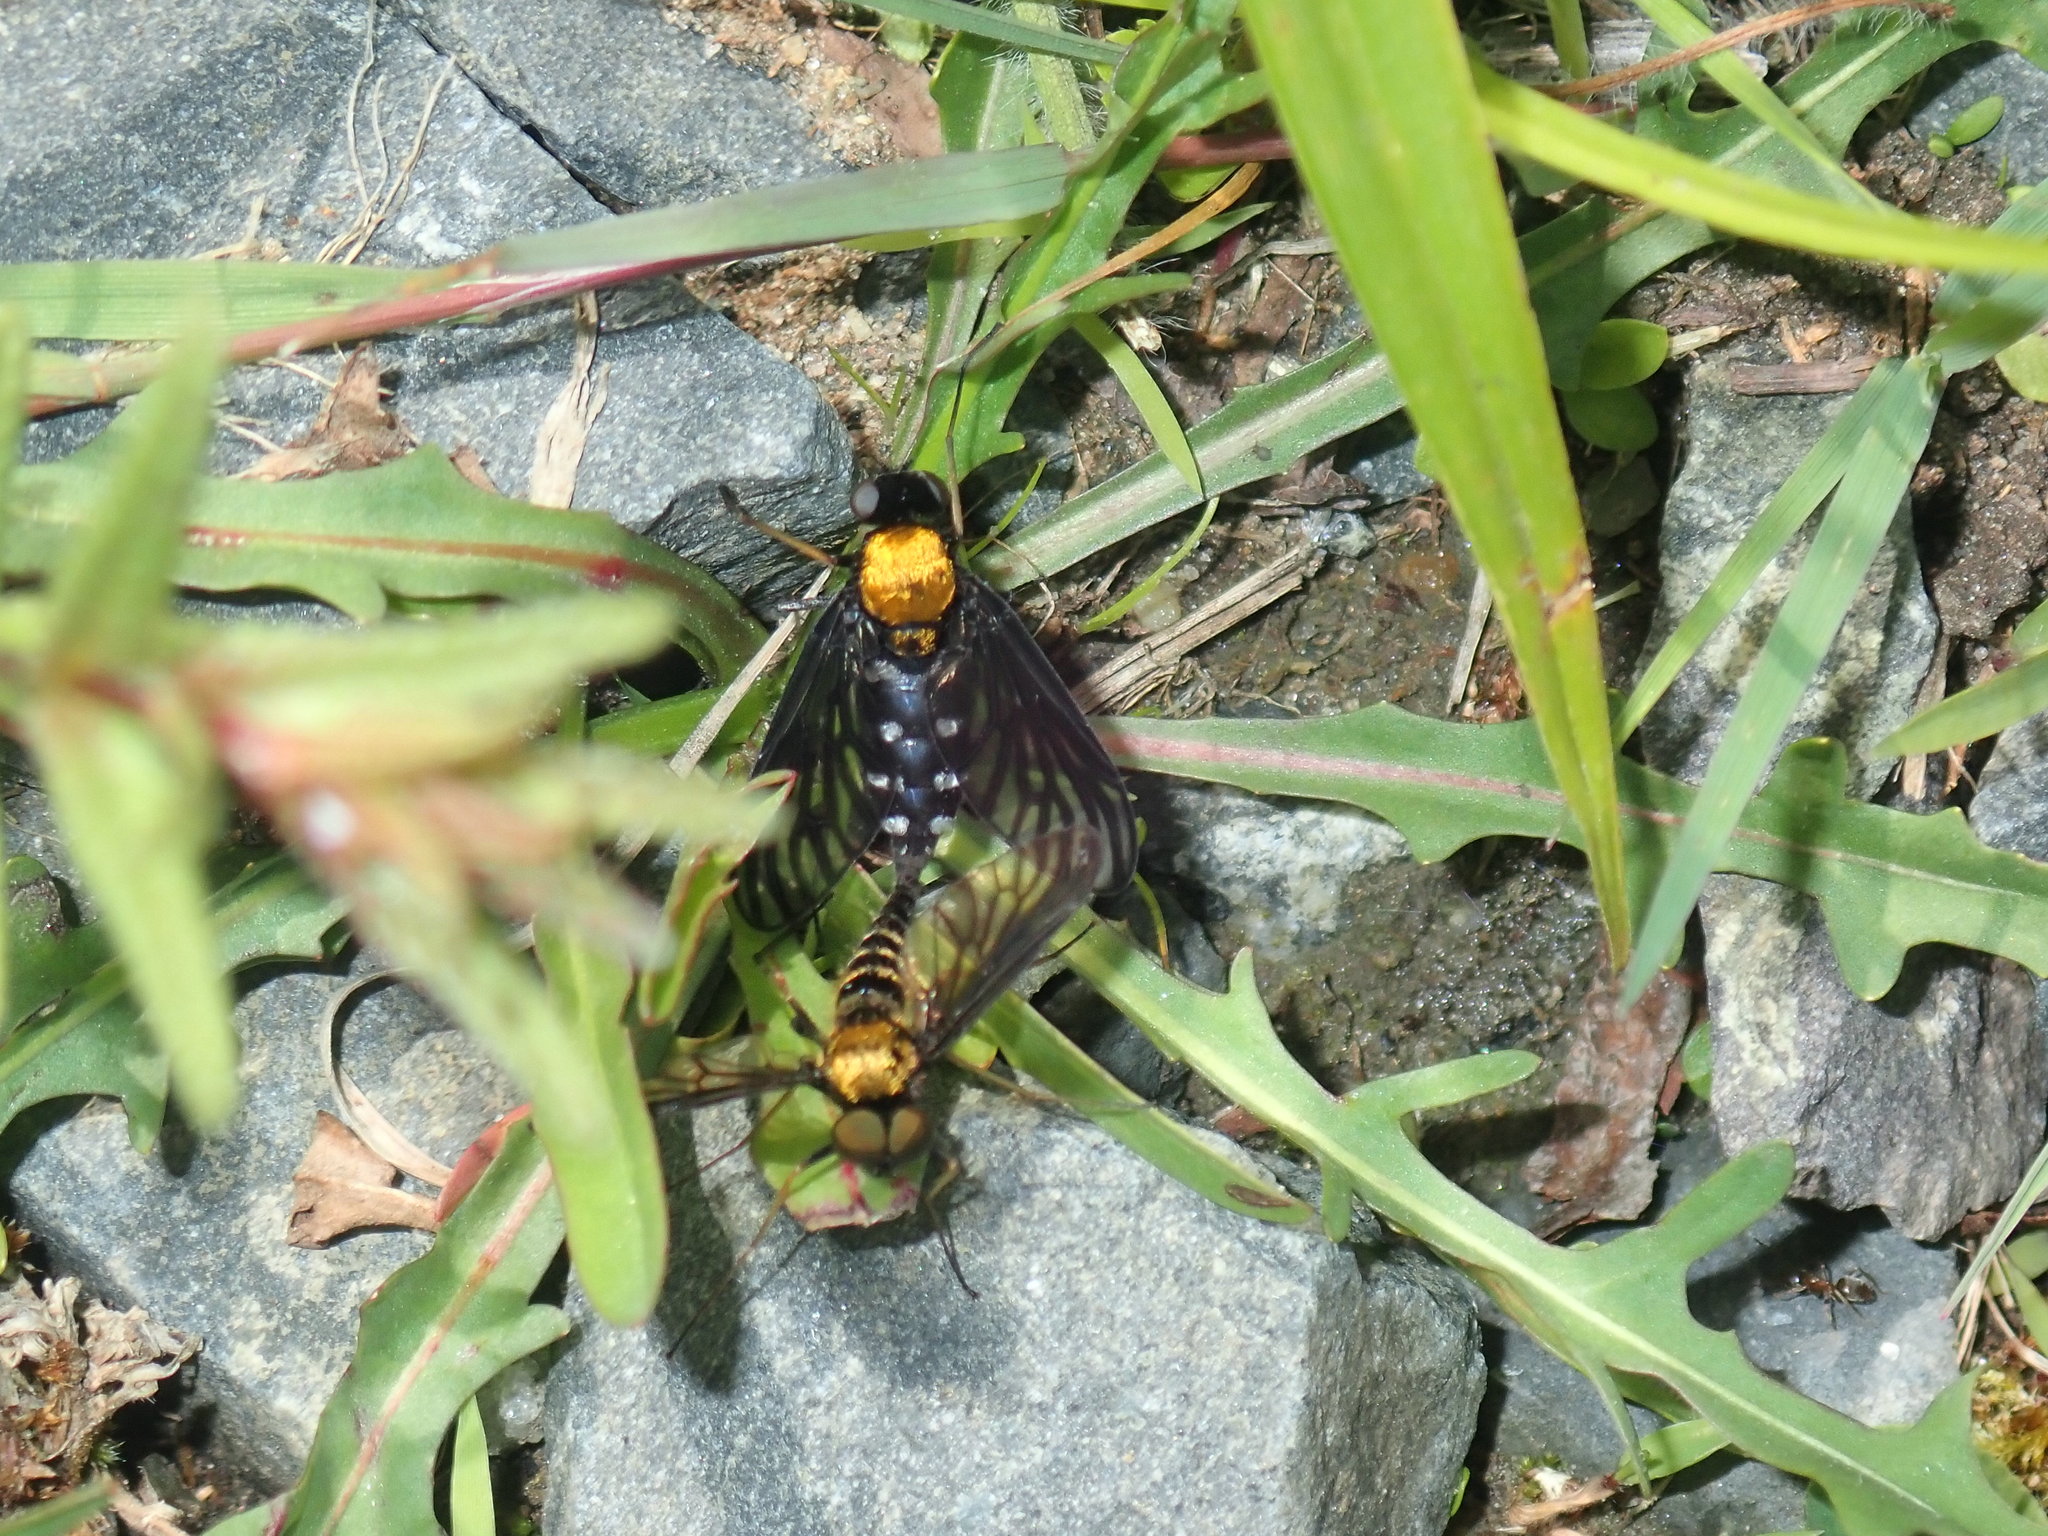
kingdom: Animalia
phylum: Arthropoda
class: Insecta
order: Diptera
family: Rhagionidae
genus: Chrysopilus
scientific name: Chrysopilus thoracicus
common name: Golden-backed snipe fly
